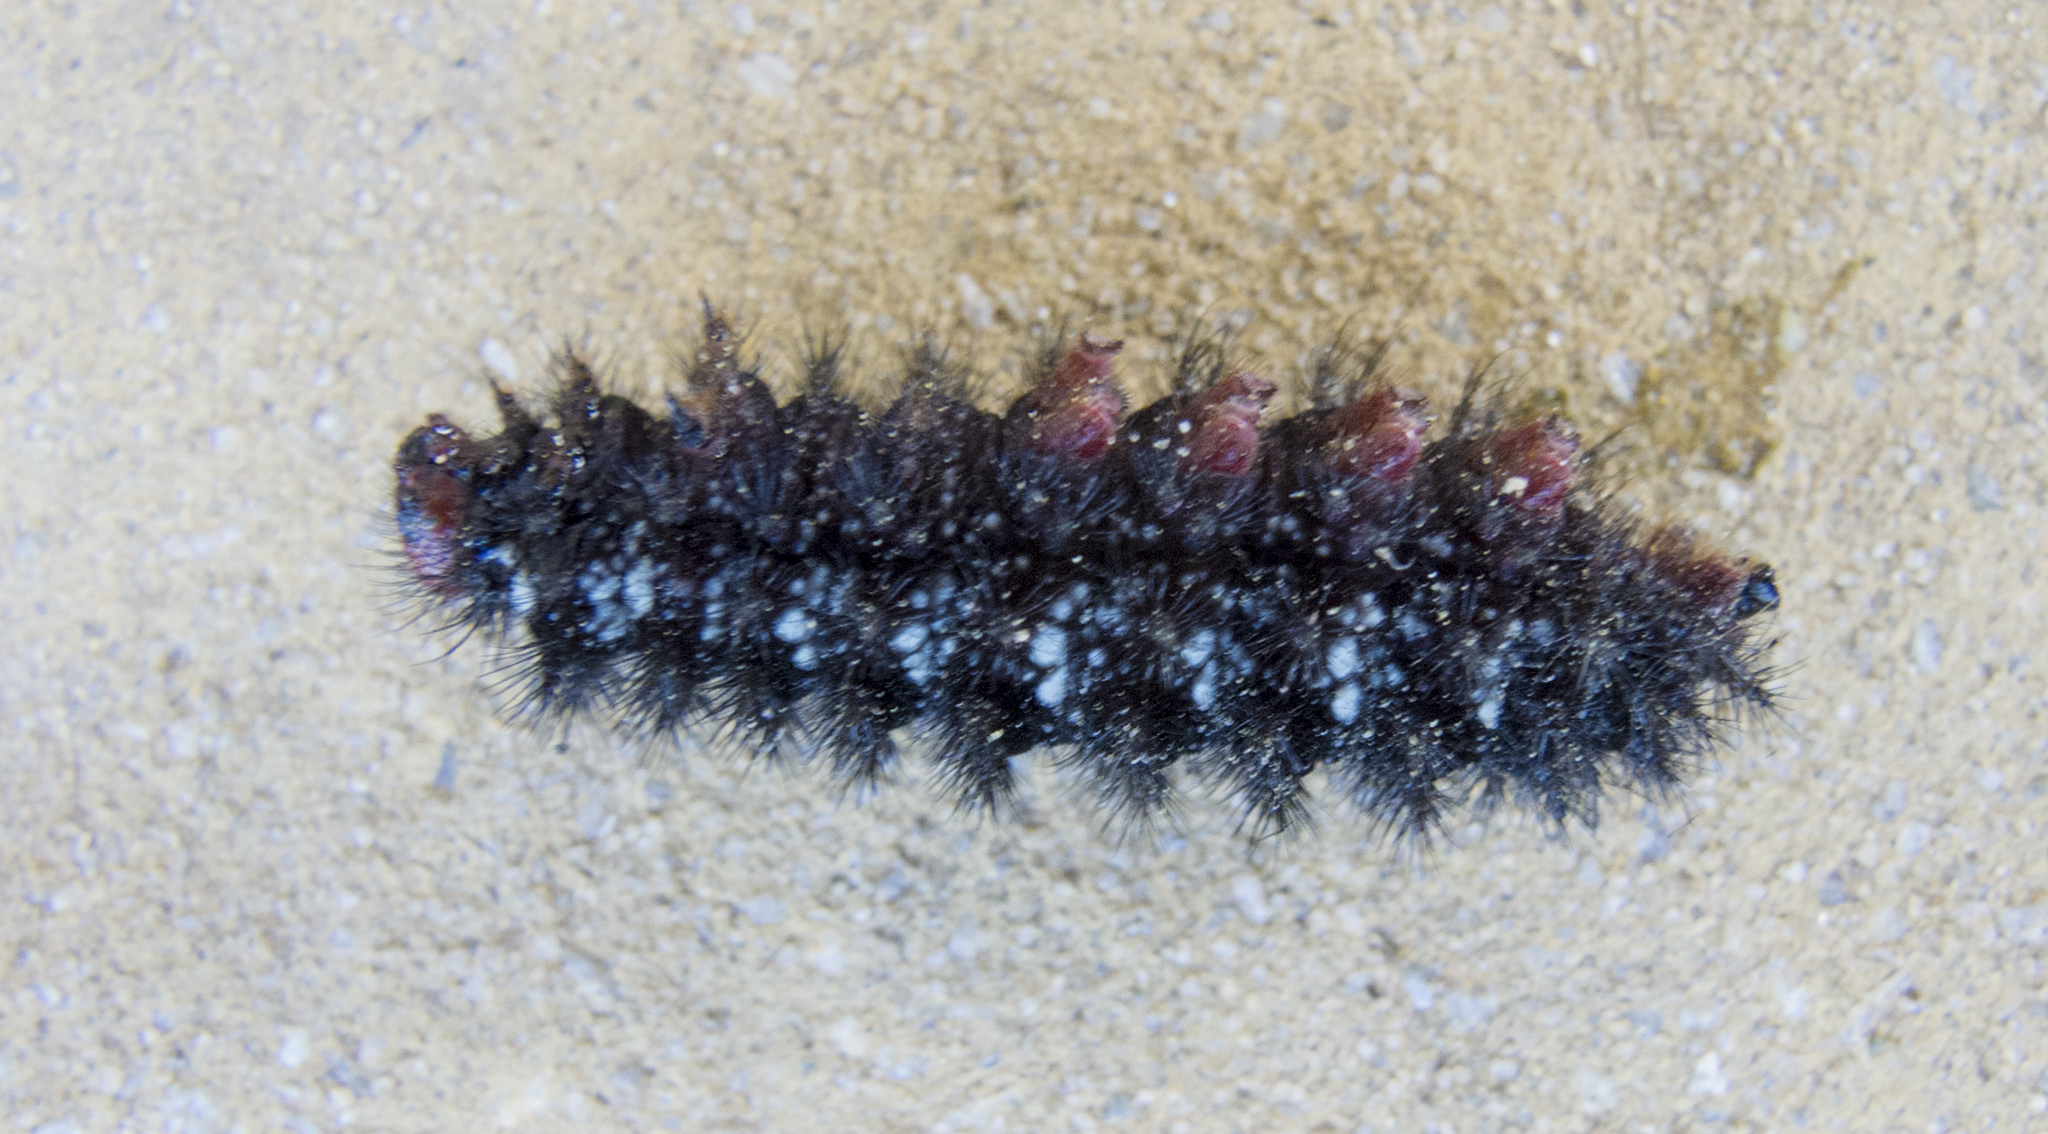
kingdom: Animalia
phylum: Arthropoda
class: Insecta
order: Lepidoptera
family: Nymphalidae
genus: Melitaea
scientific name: Melitaea cinxia
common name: Glanville fritillary
